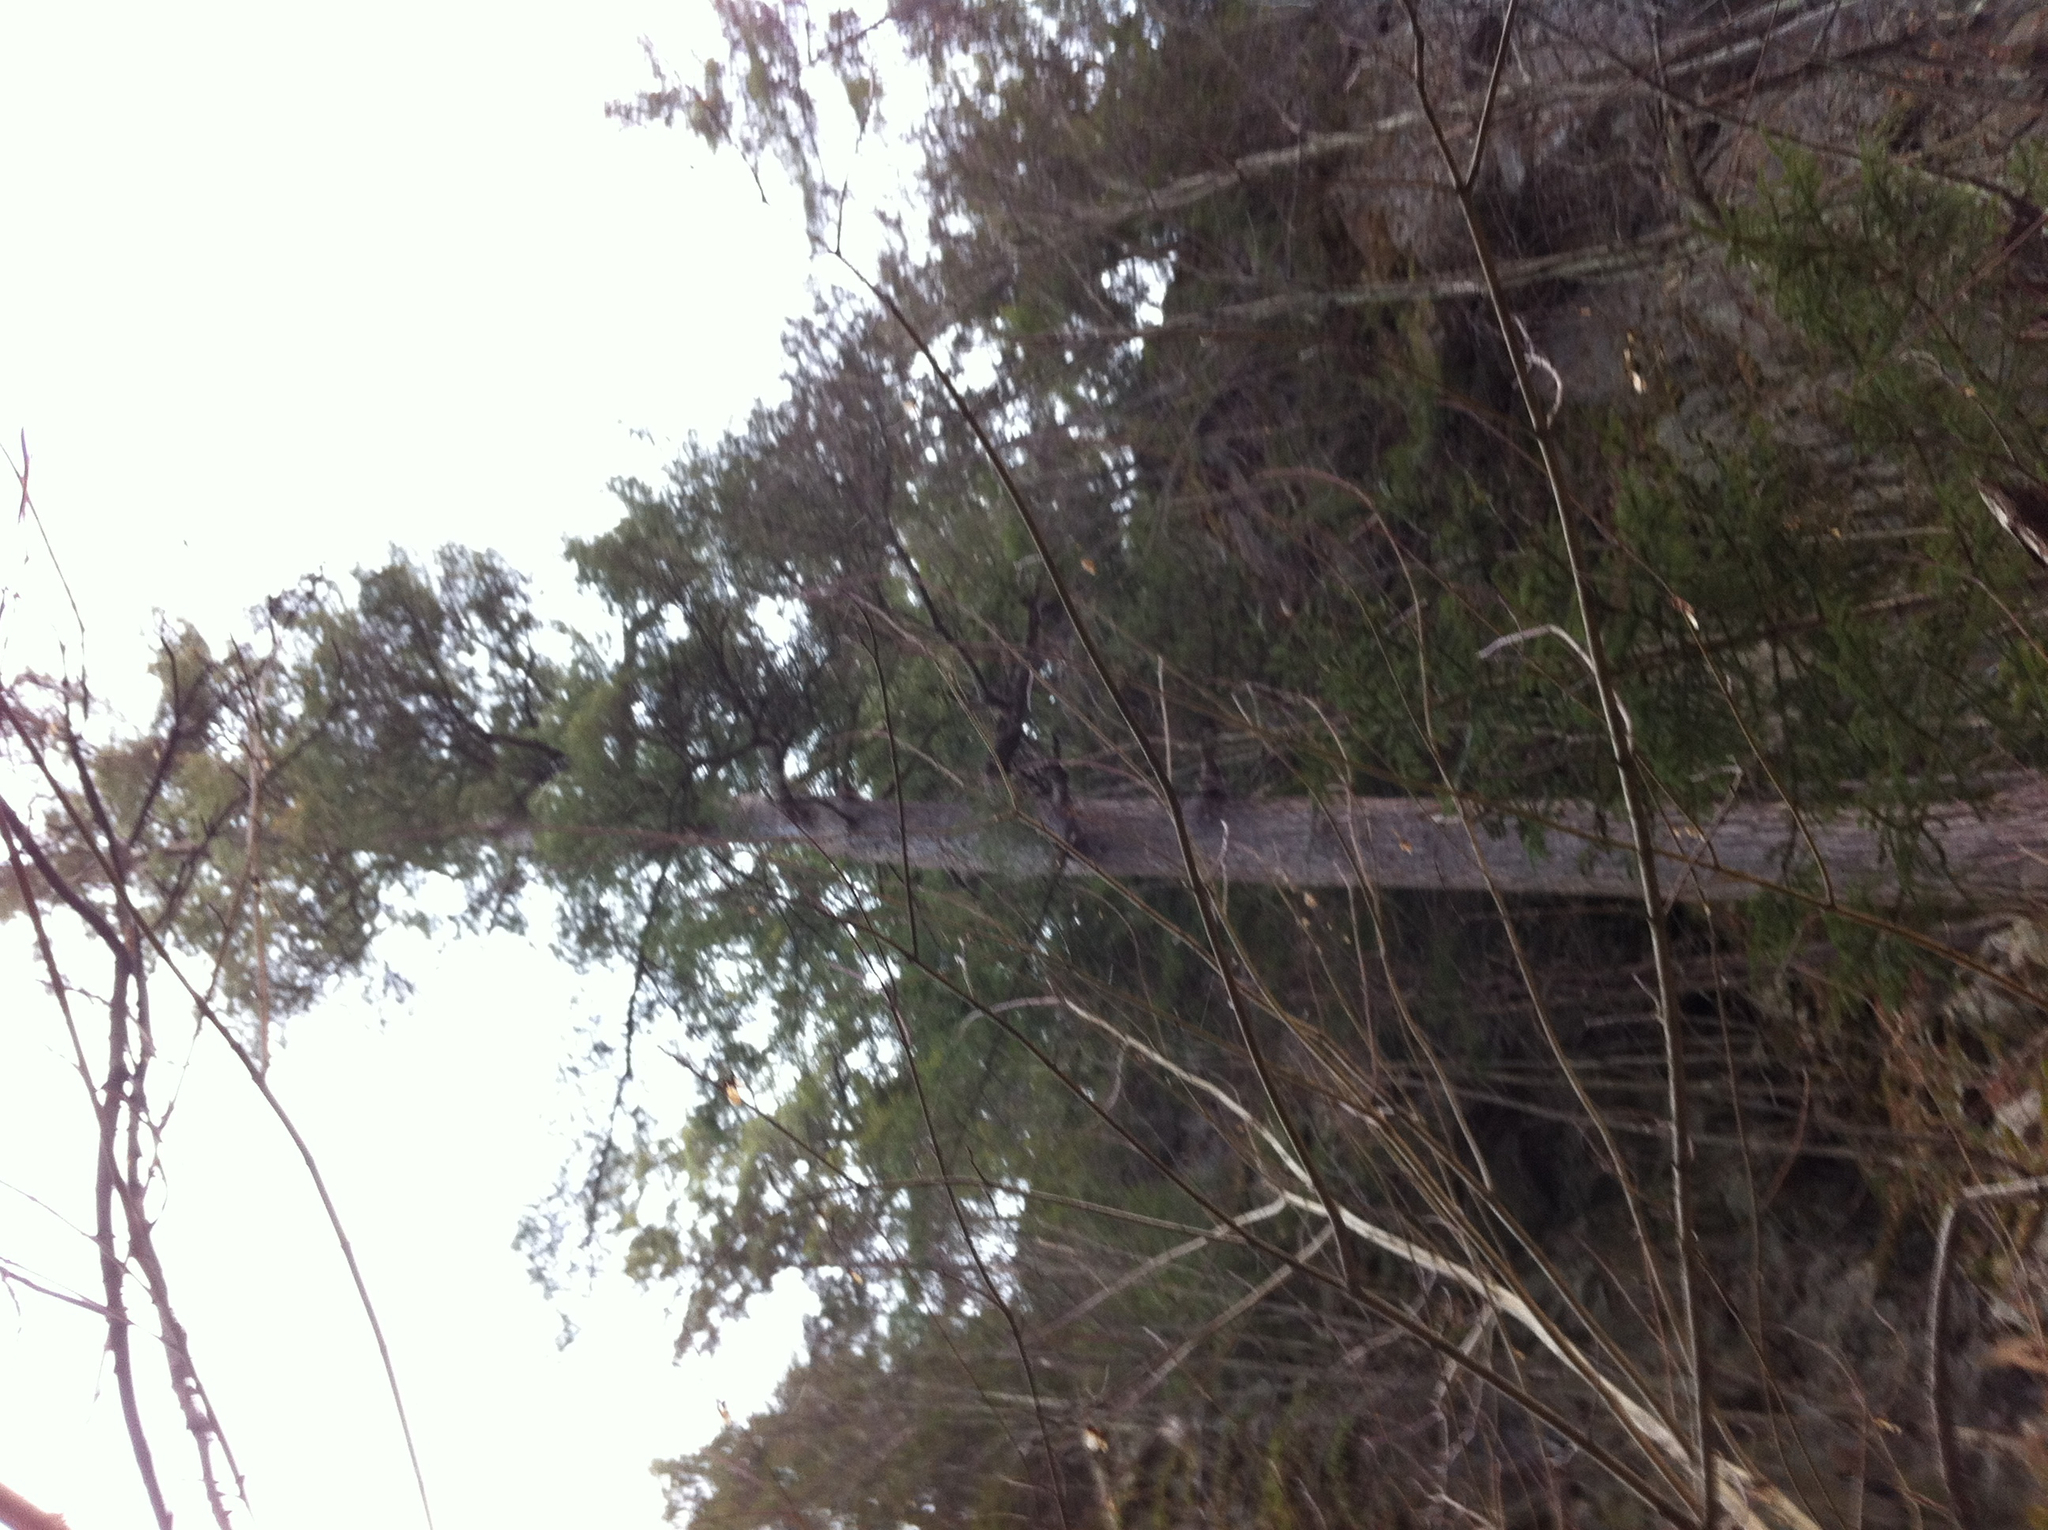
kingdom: Plantae
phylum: Tracheophyta
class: Pinopsida
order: Pinales
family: Pinaceae
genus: Pinus
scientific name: Pinus strobus
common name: Weymouth pine
